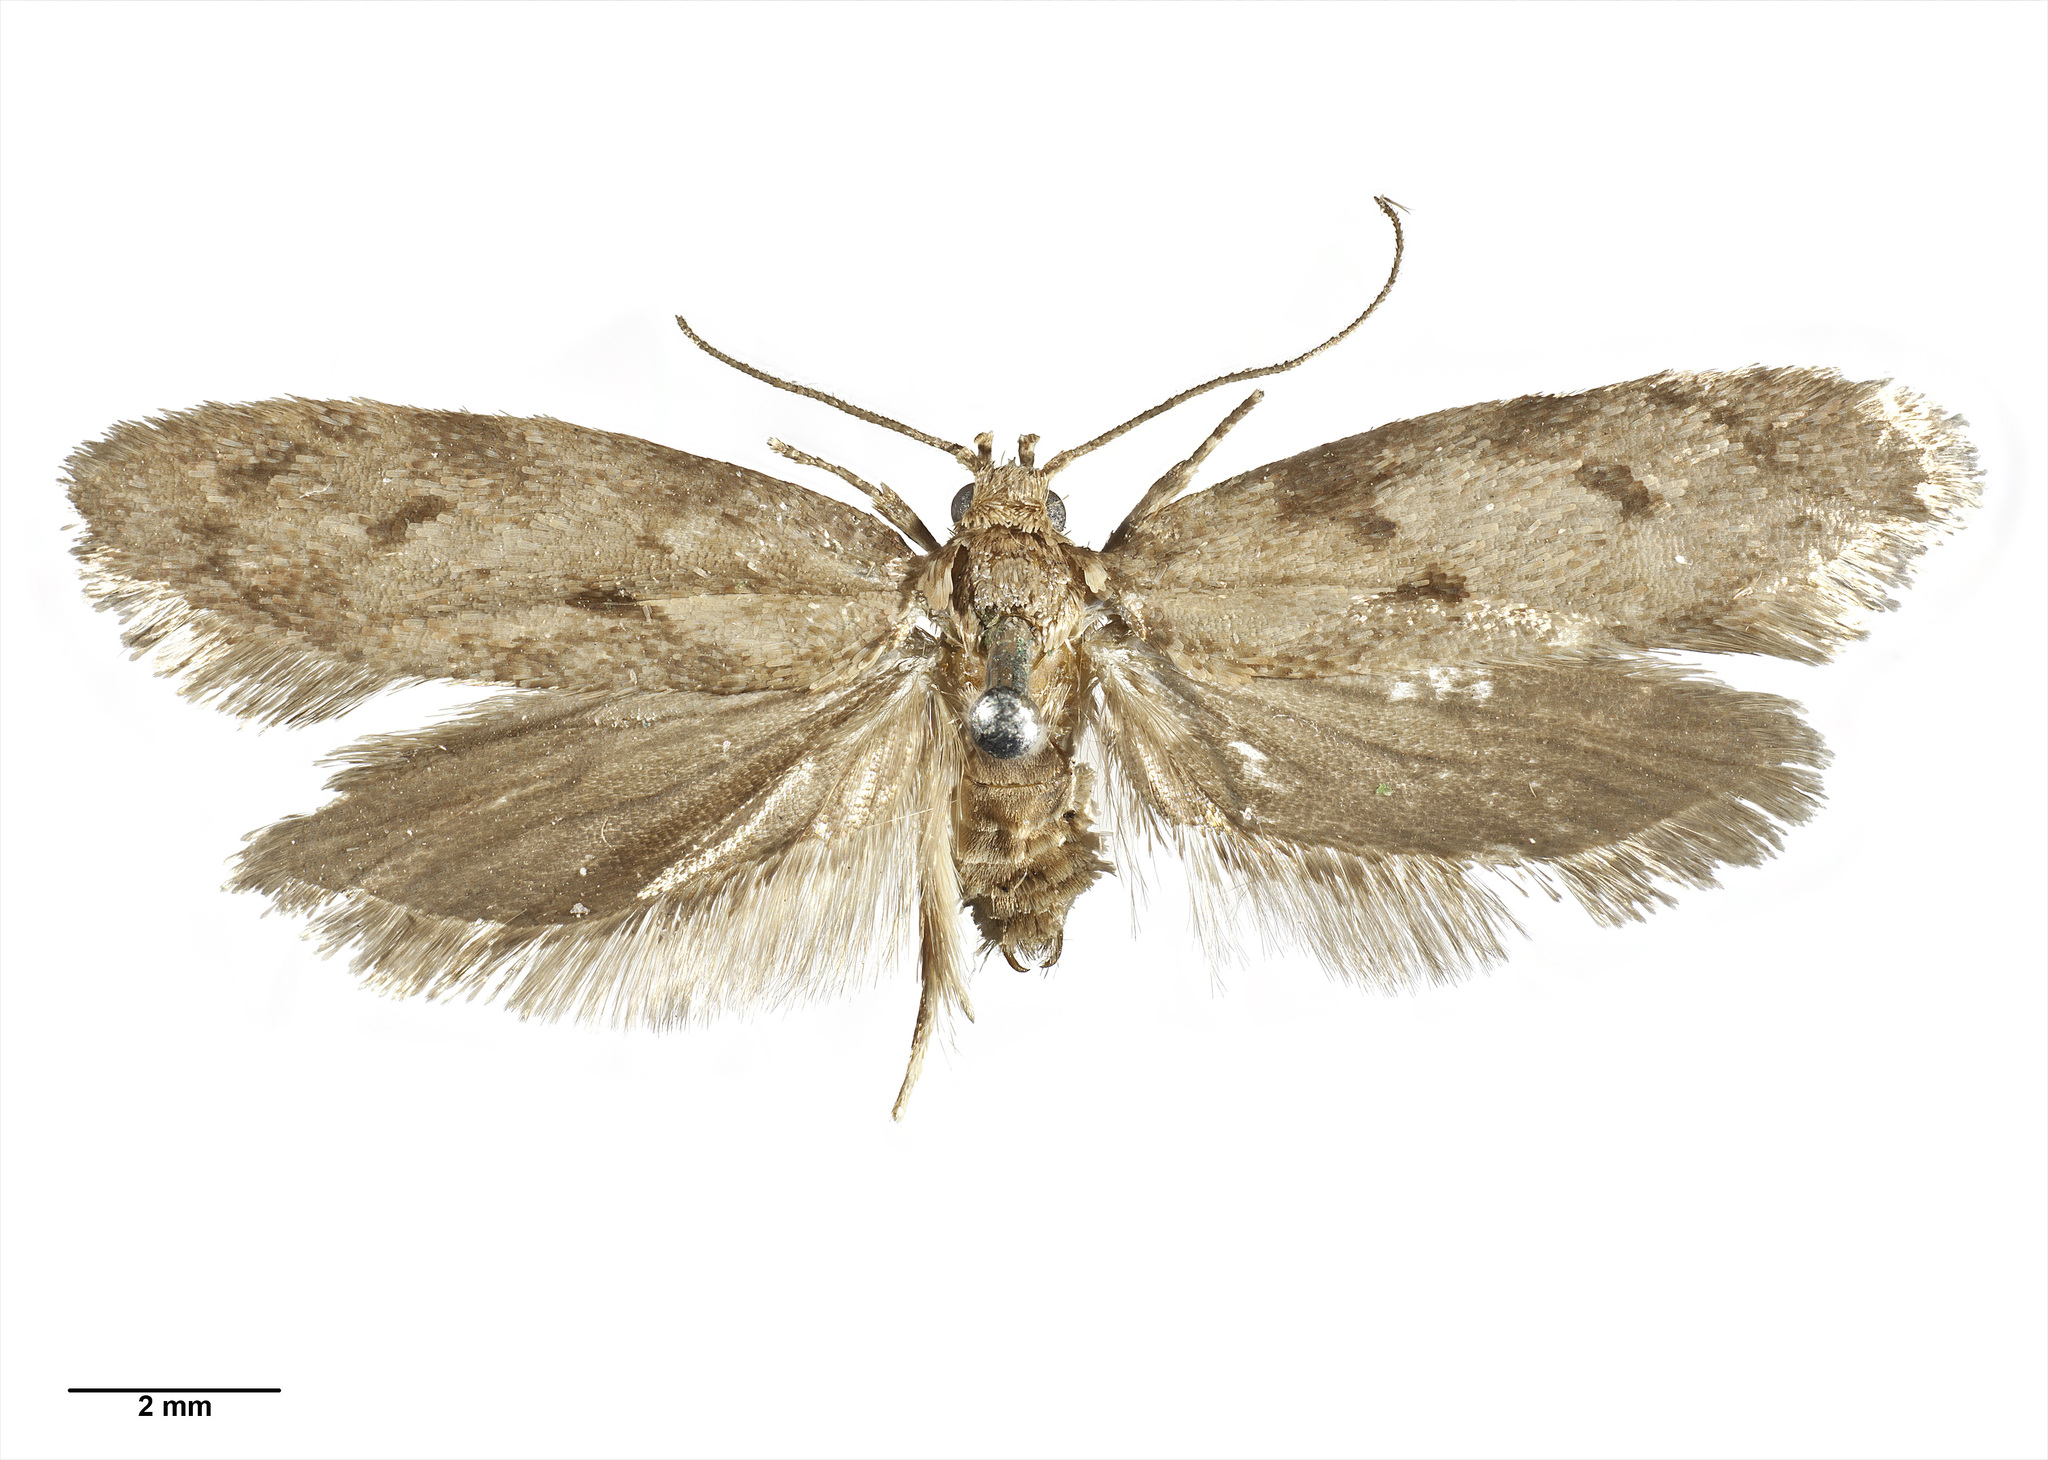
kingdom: Animalia
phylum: Arthropoda
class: Insecta
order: Lepidoptera
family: Oecophoridae
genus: Leptocroca
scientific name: Leptocroca aquilonaris
